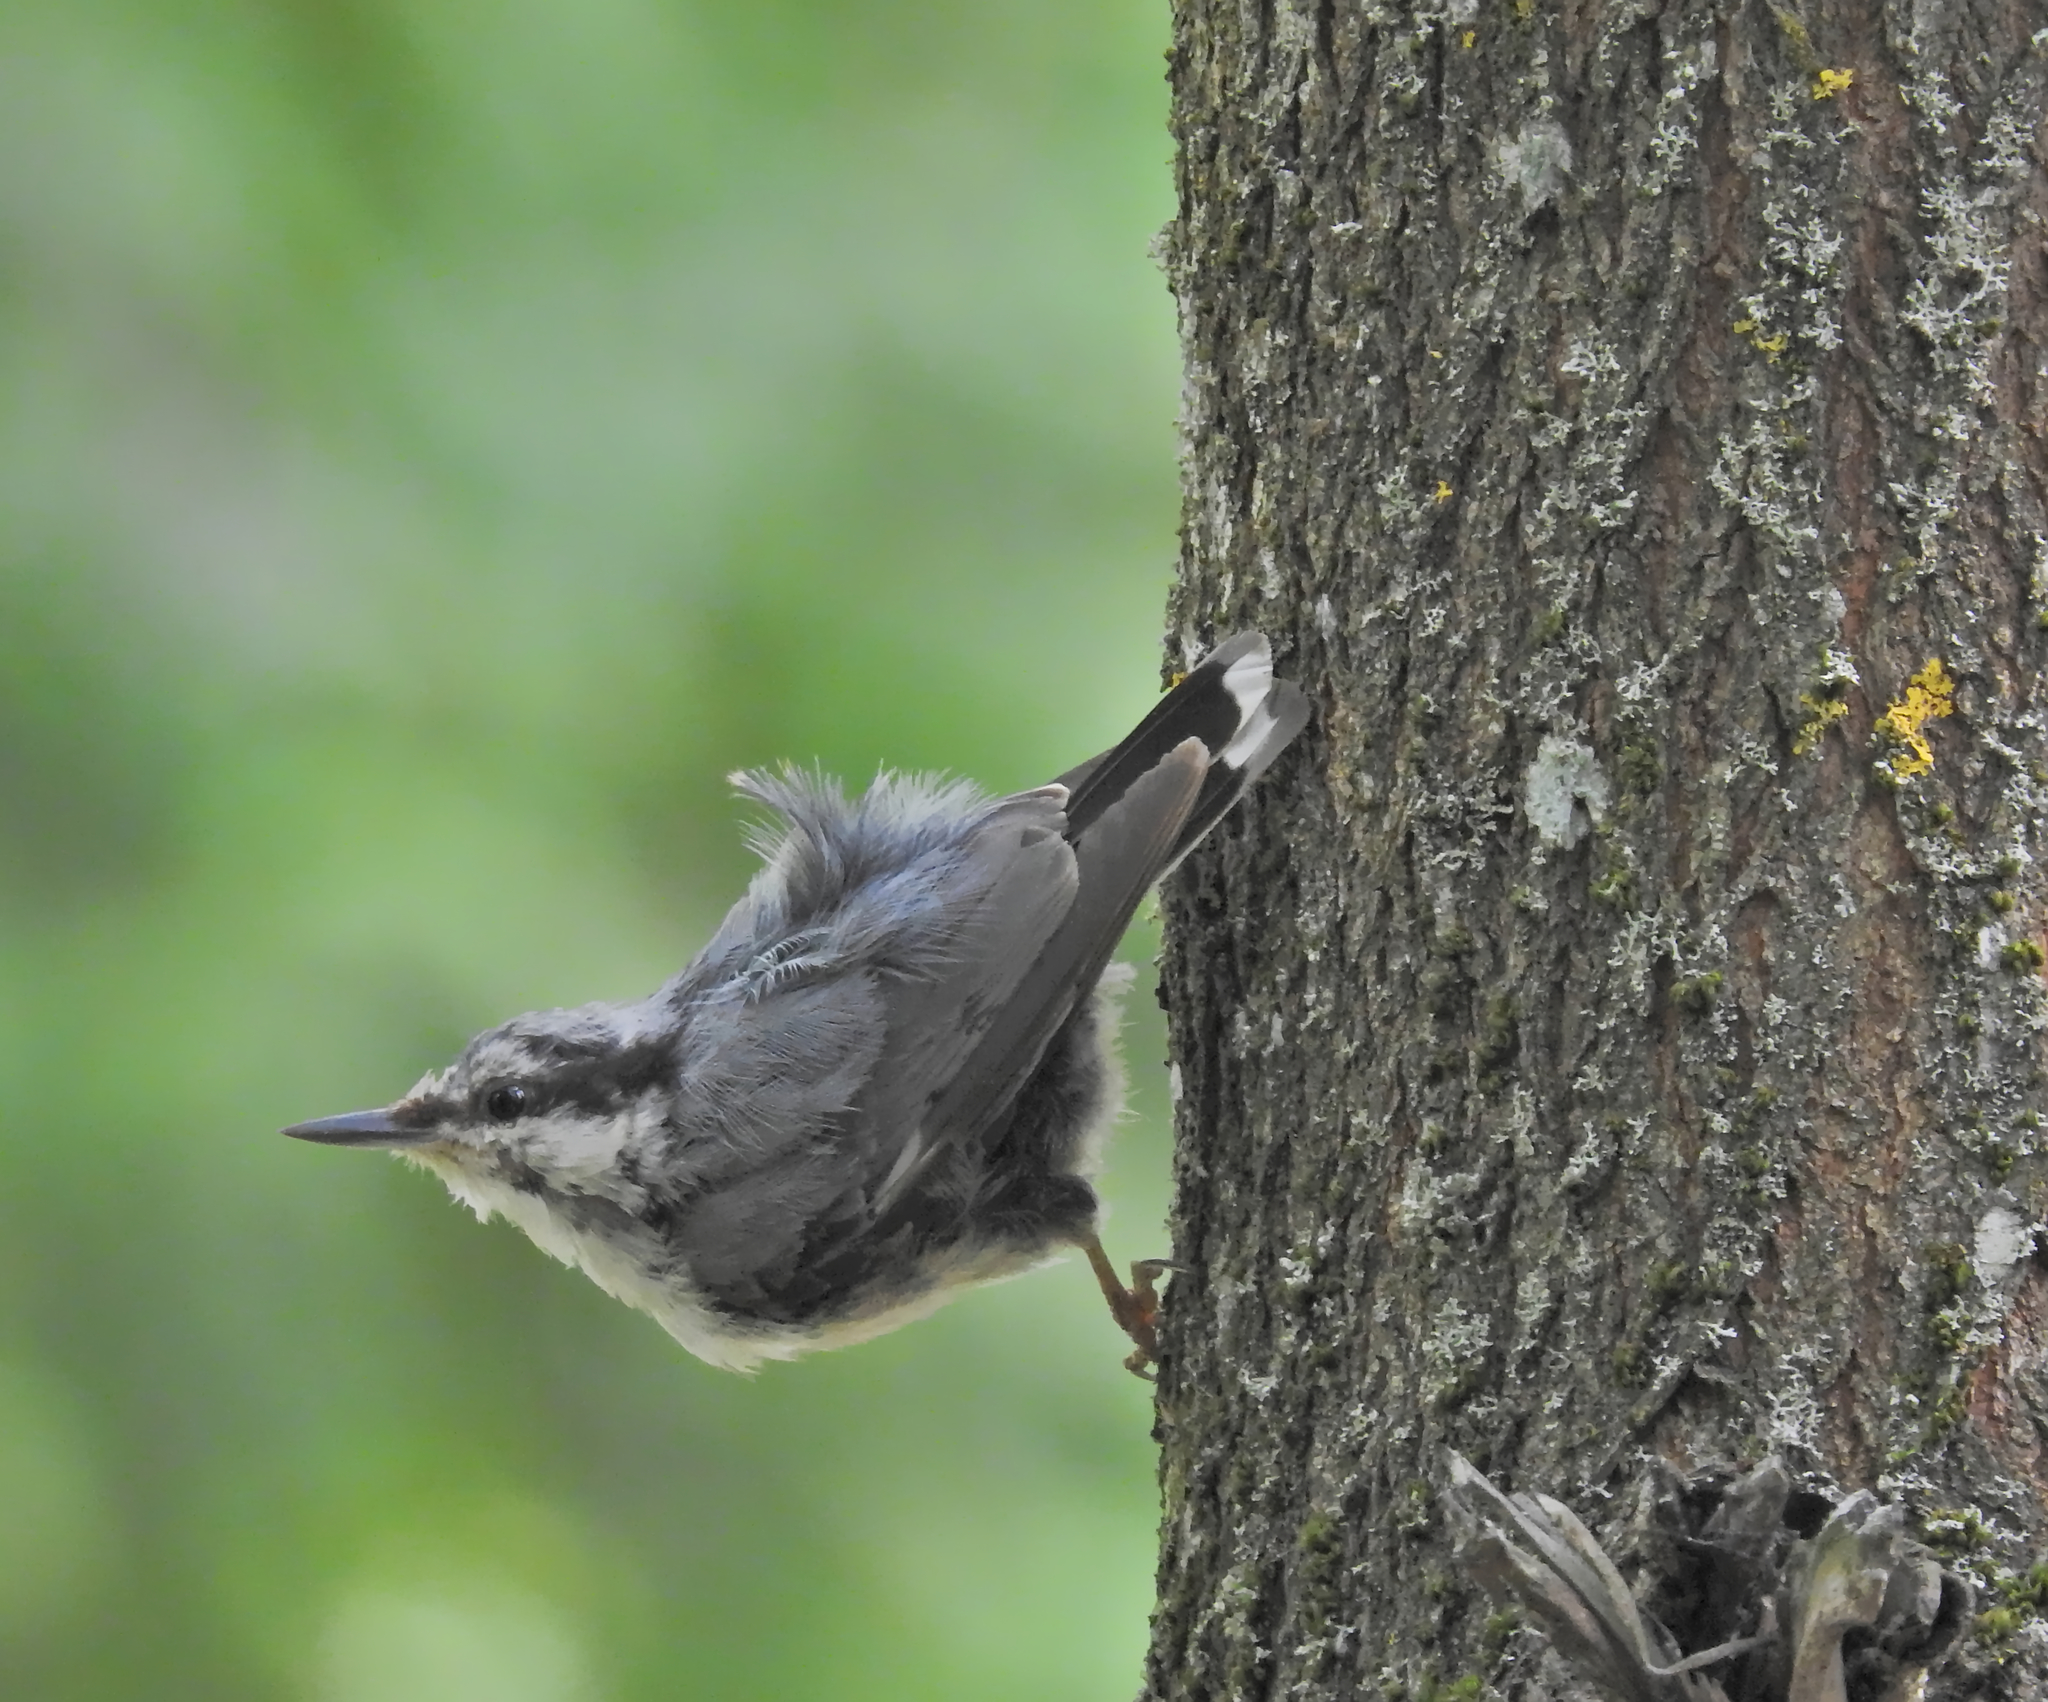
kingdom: Animalia
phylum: Chordata
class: Aves
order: Passeriformes
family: Sittidae
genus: Sitta
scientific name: Sitta europaea
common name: Eurasian nuthatch
